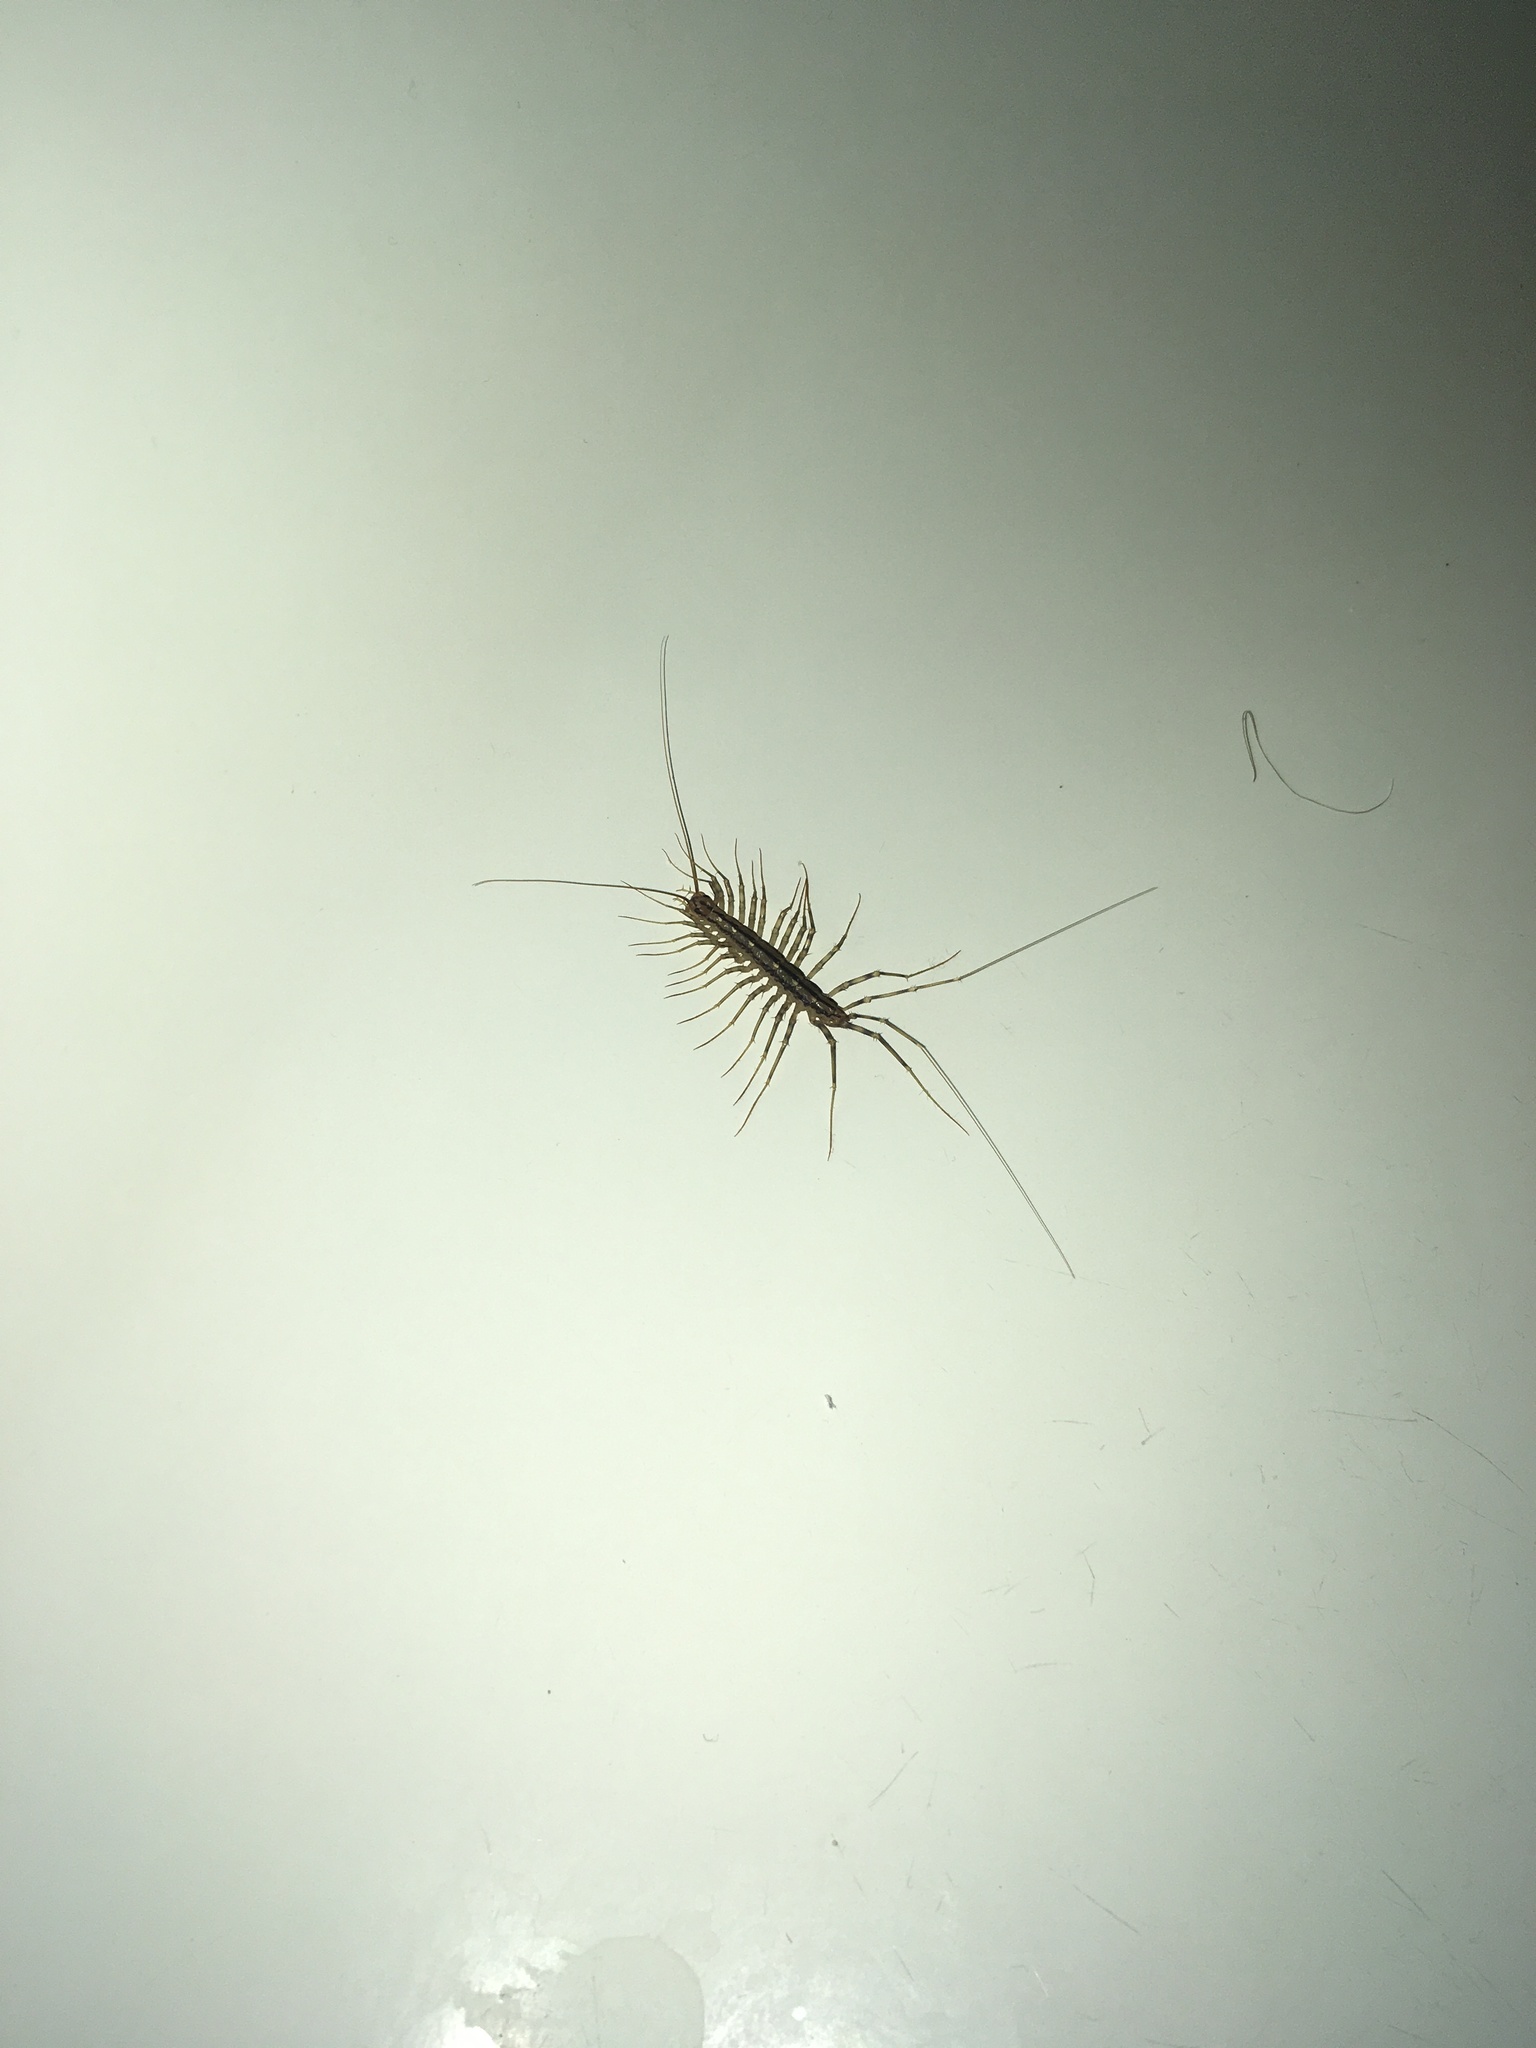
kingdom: Animalia
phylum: Arthropoda
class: Chilopoda
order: Scutigeromorpha
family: Scutigeridae
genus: Scutigera
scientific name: Scutigera coleoptrata
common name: House centipede
